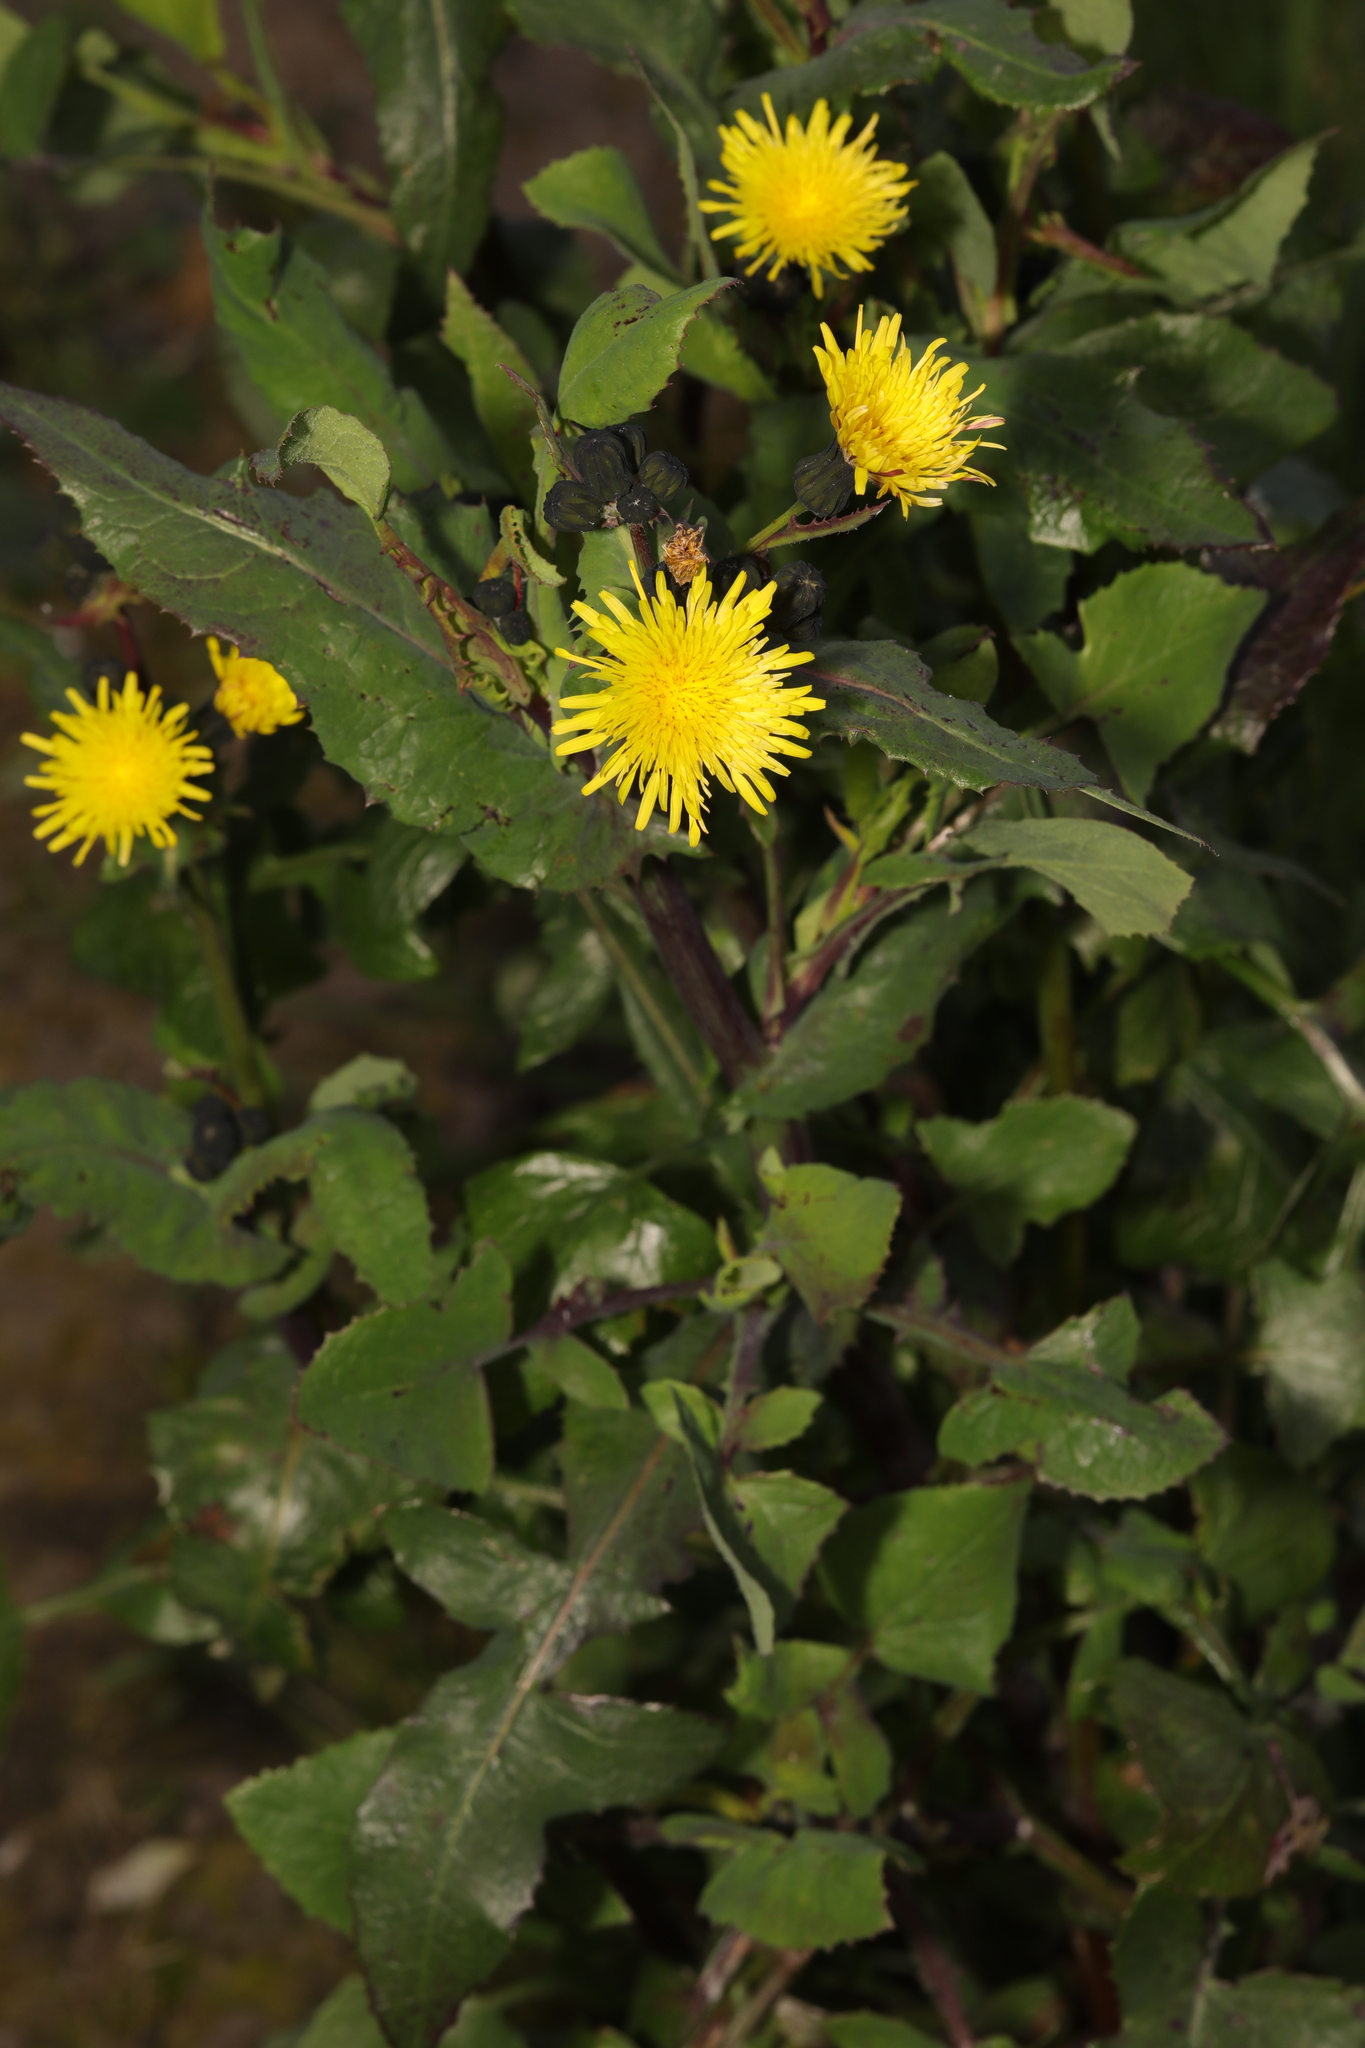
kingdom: Plantae
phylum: Tracheophyta
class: Magnoliopsida
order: Asterales
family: Asteraceae
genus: Sonchus
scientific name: Sonchus oleraceus
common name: Common sowthistle
